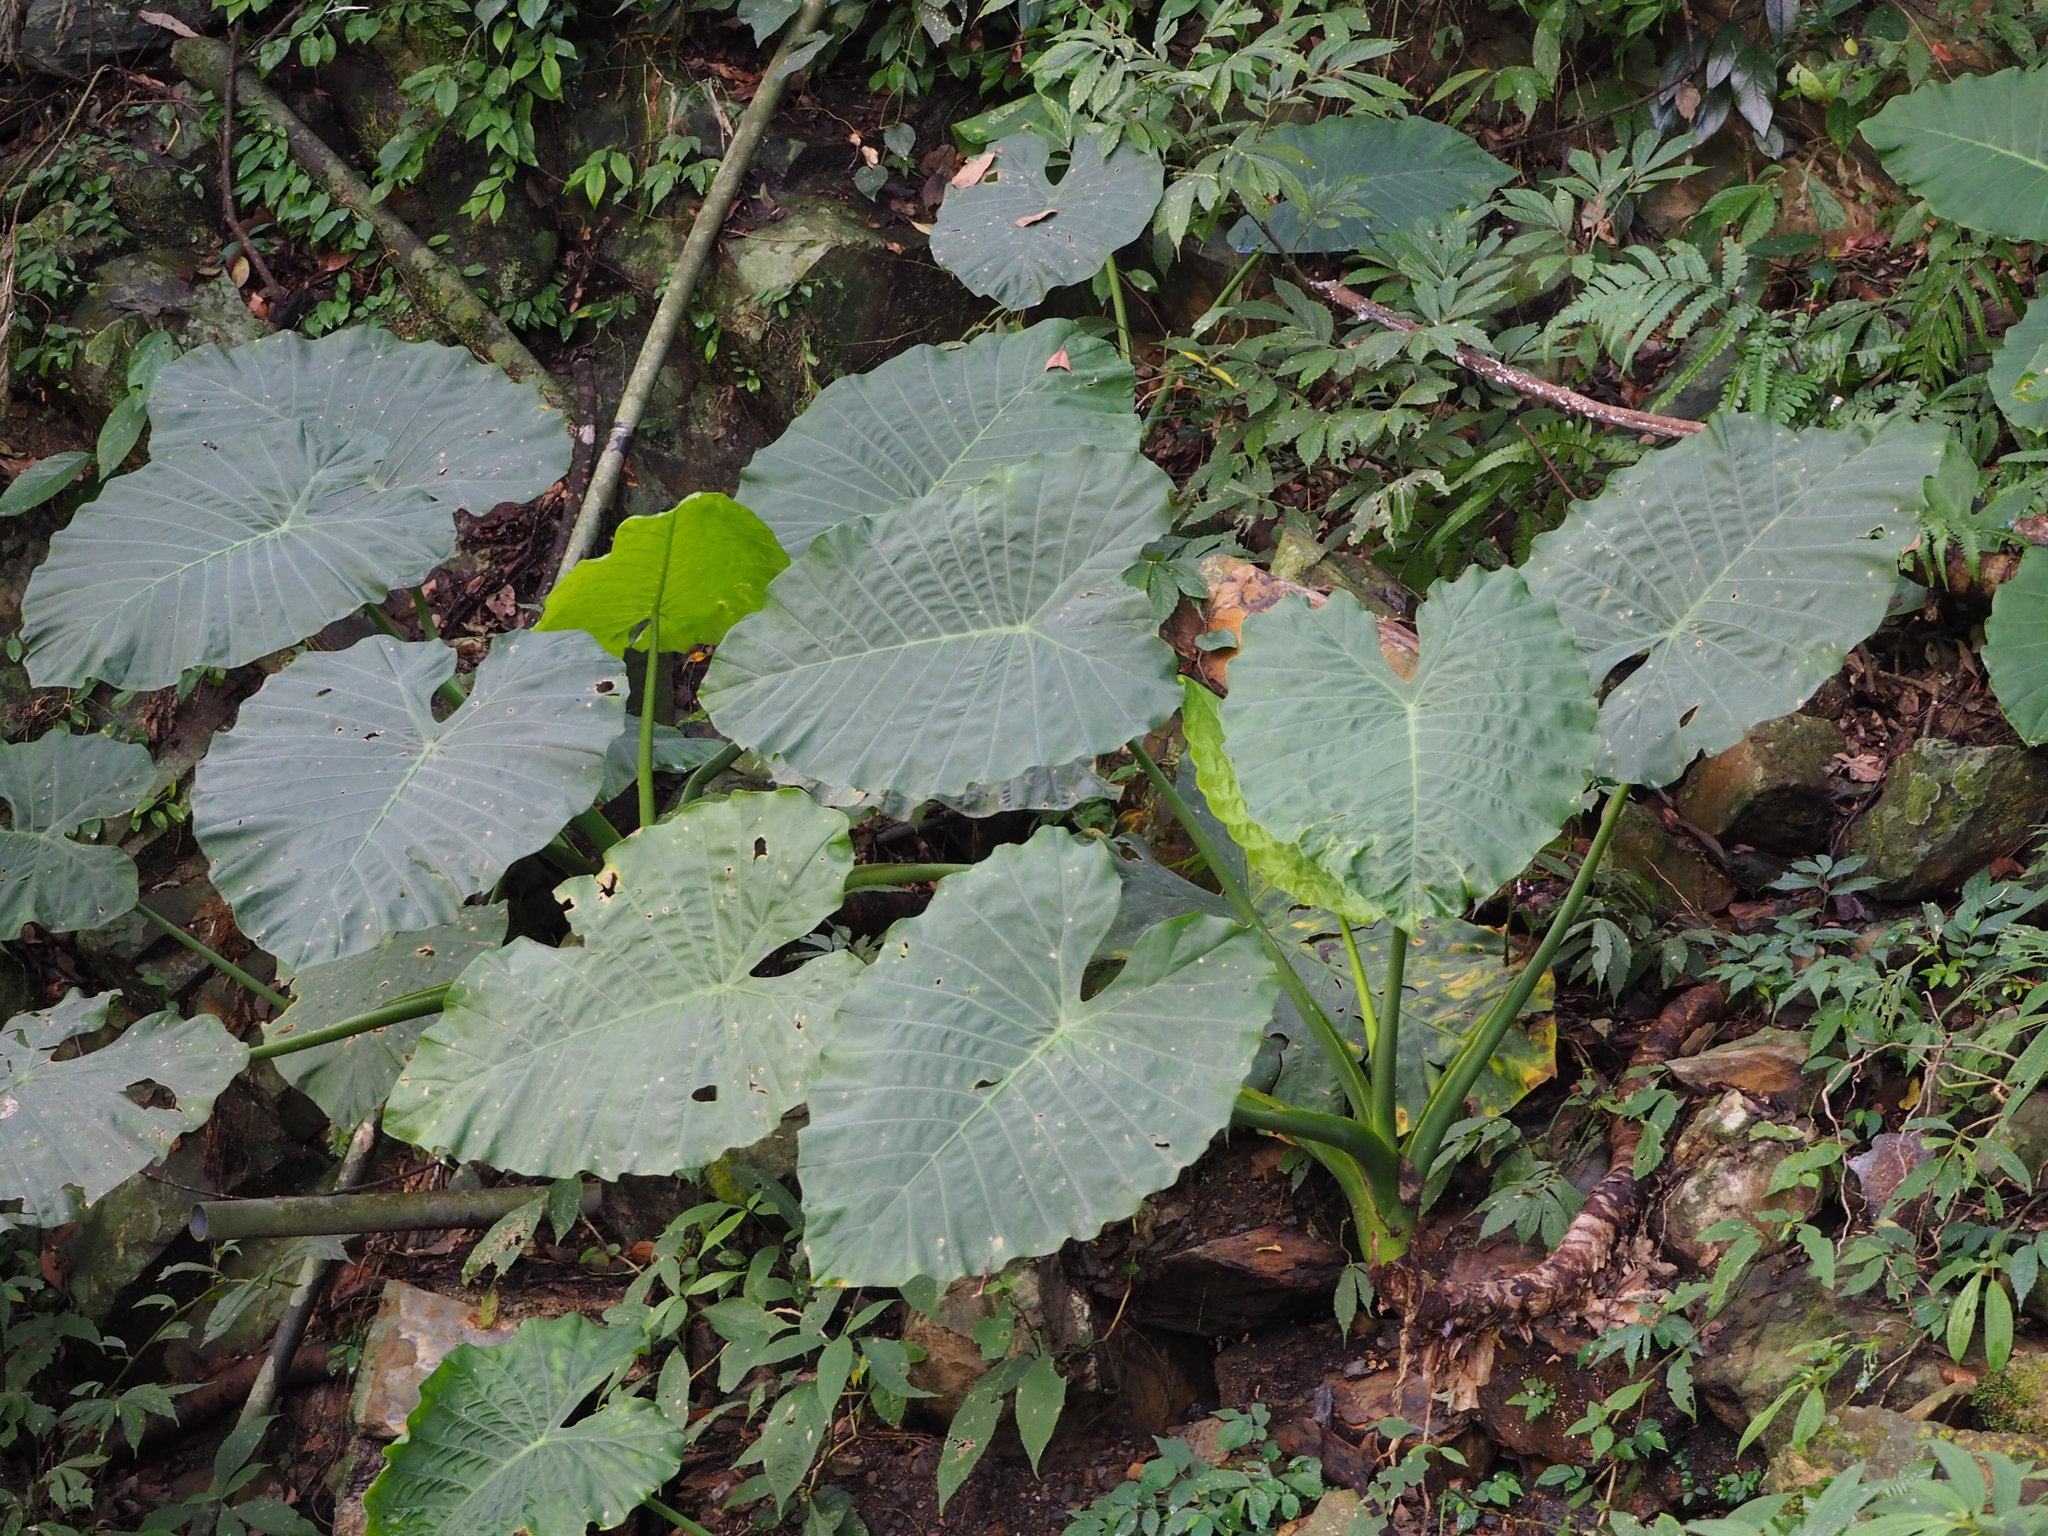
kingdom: Plantae
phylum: Tracheophyta
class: Liliopsida
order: Alismatales
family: Araceae
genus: Alocasia
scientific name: Alocasia odora
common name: Asian taro
